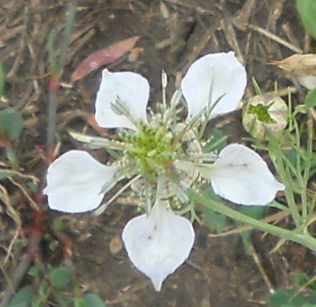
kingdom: Plantae
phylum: Tracheophyta
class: Magnoliopsida
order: Ranunculales
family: Ranunculaceae
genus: Nigella
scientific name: Nigella arvensis
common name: Wild fennel-flower
